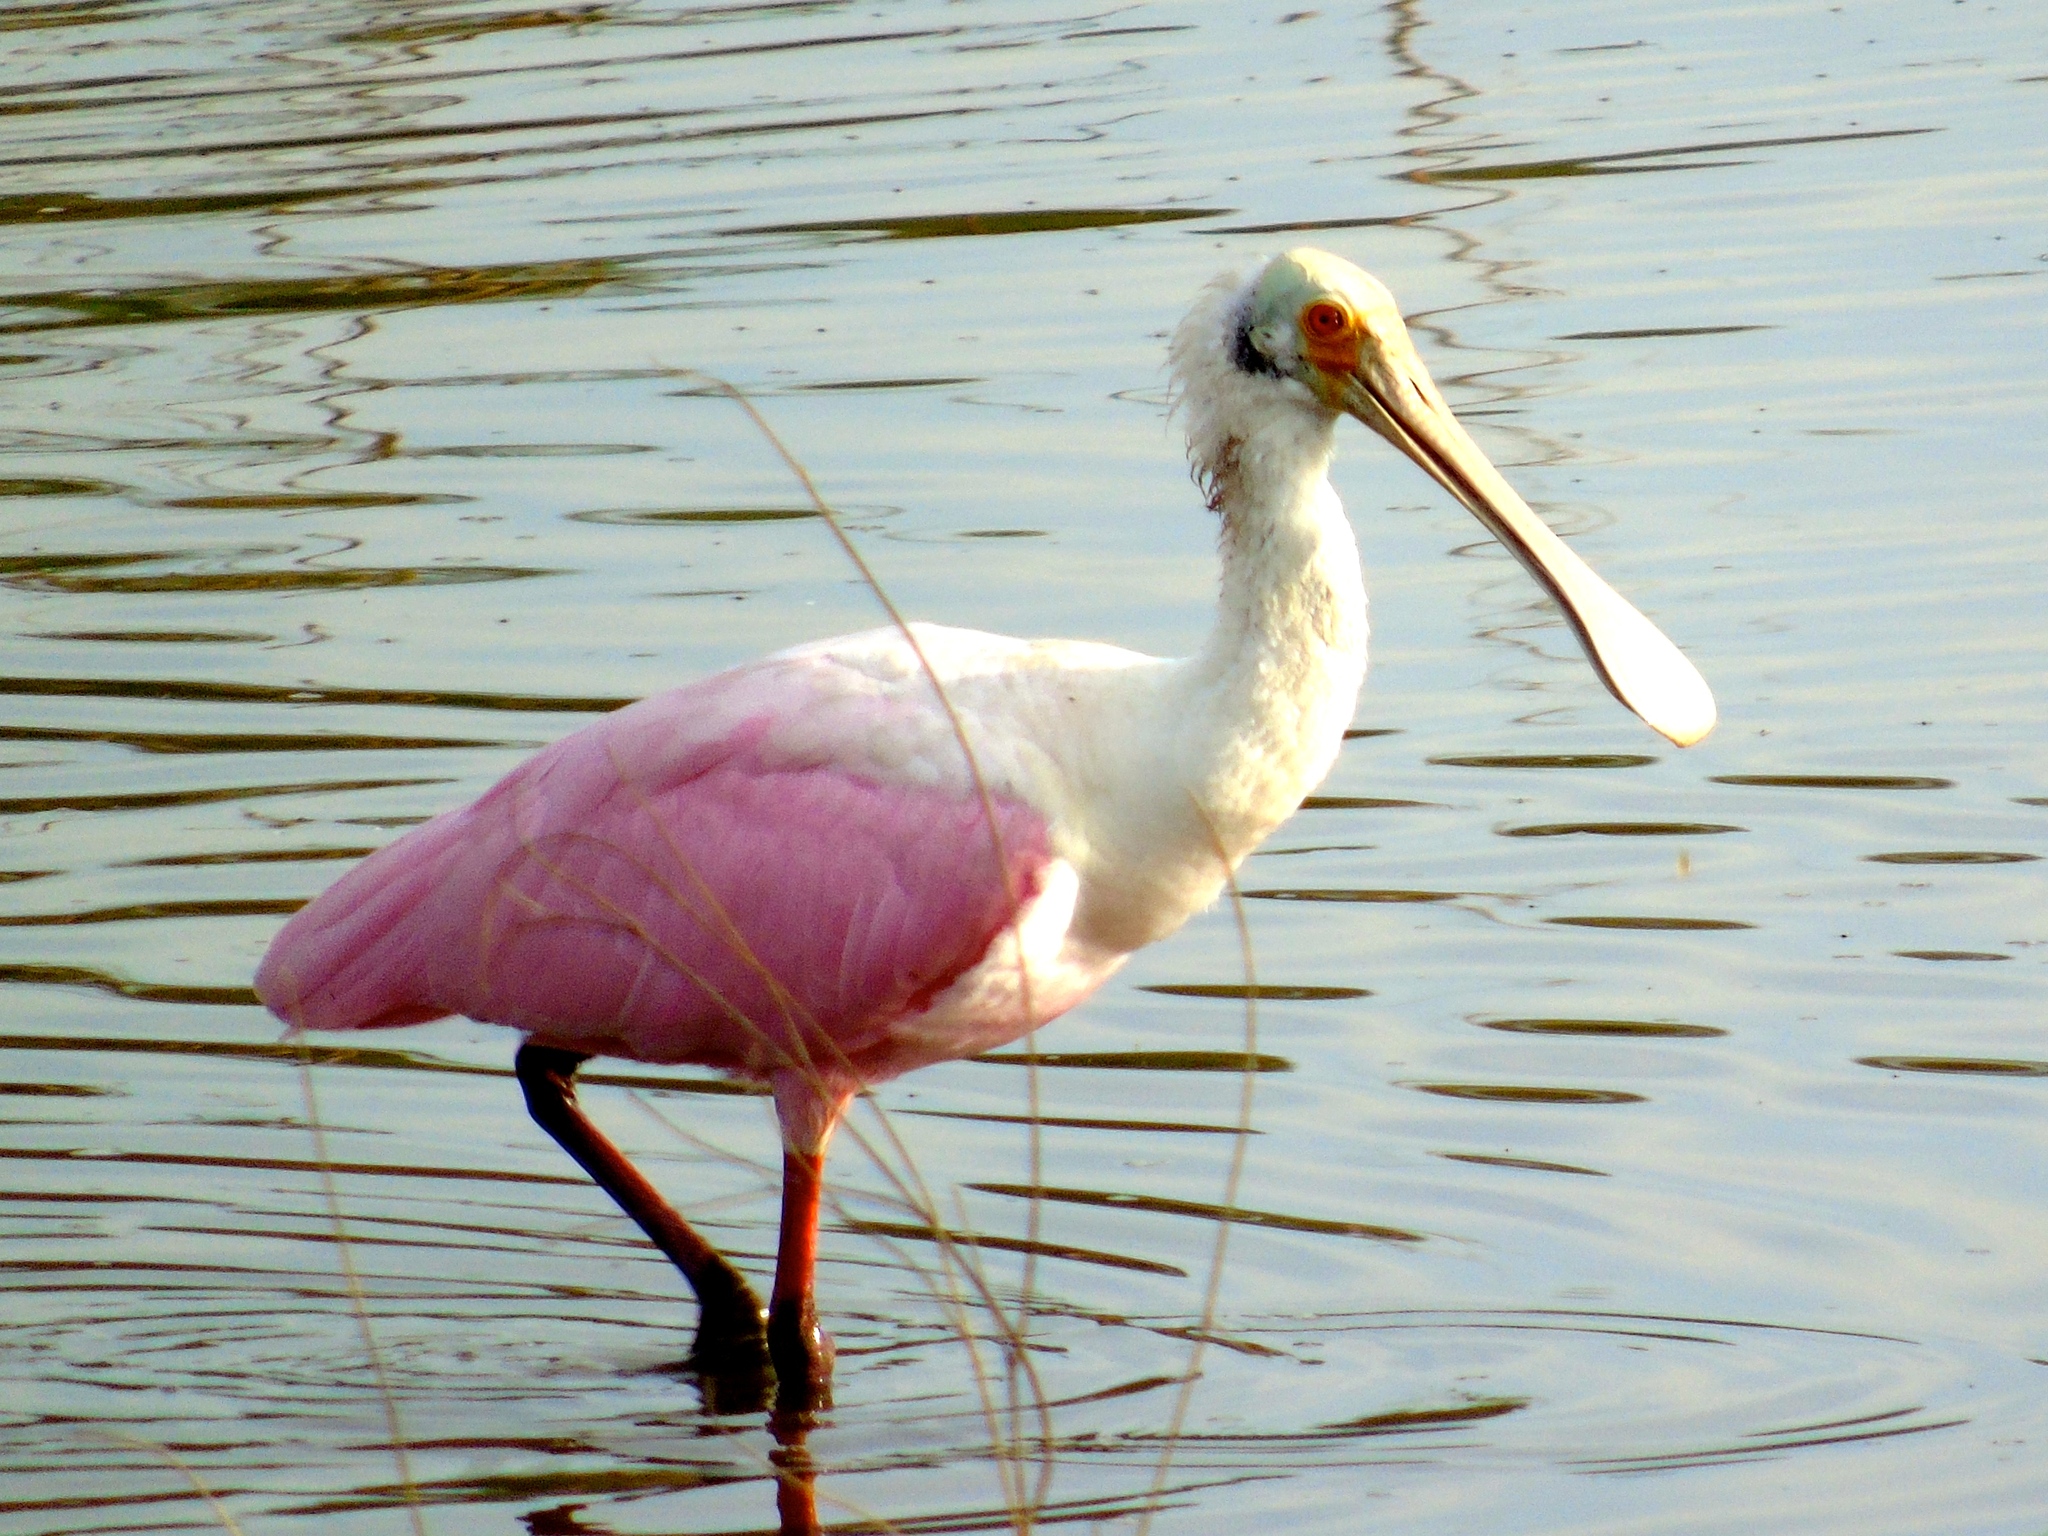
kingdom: Animalia
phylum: Chordata
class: Aves
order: Pelecaniformes
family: Threskiornithidae
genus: Platalea
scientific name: Platalea ajaja
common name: Roseate spoonbill
